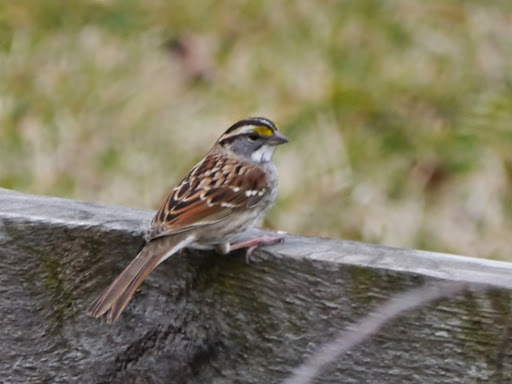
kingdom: Animalia
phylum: Chordata
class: Aves
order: Passeriformes
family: Passerellidae
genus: Zonotrichia
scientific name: Zonotrichia albicollis
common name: White-throated sparrow
